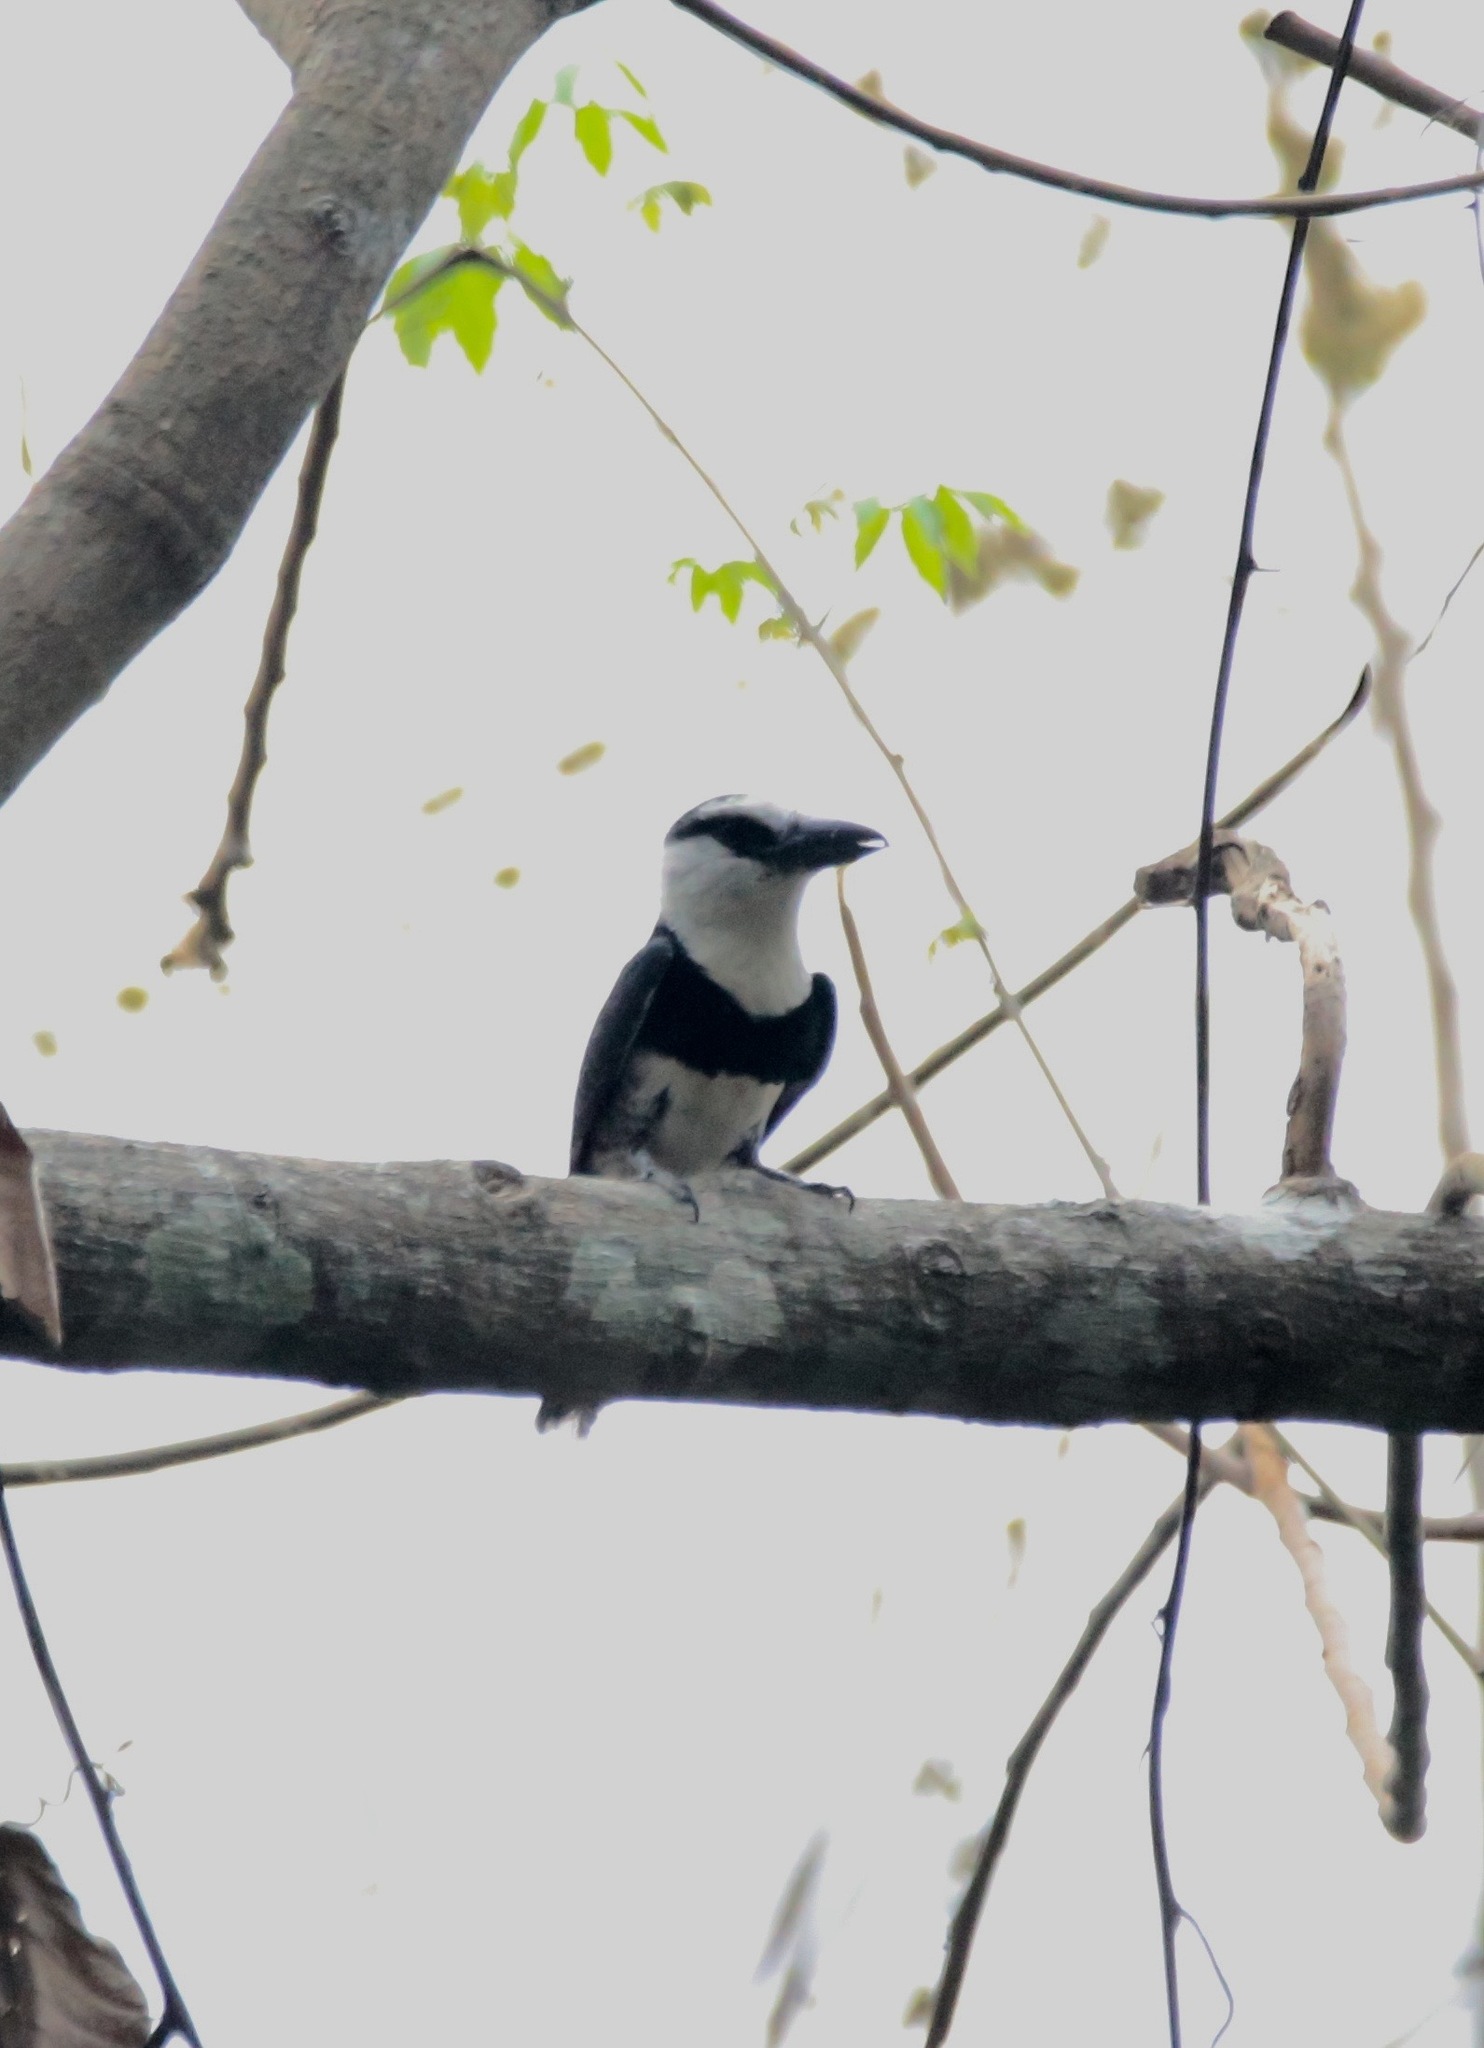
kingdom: Animalia
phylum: Chordata
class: Aves
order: Piciformes
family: Bucconidae
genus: Notharchus
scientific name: Notharchus hyperrhynchus
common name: White-necked puffbird
